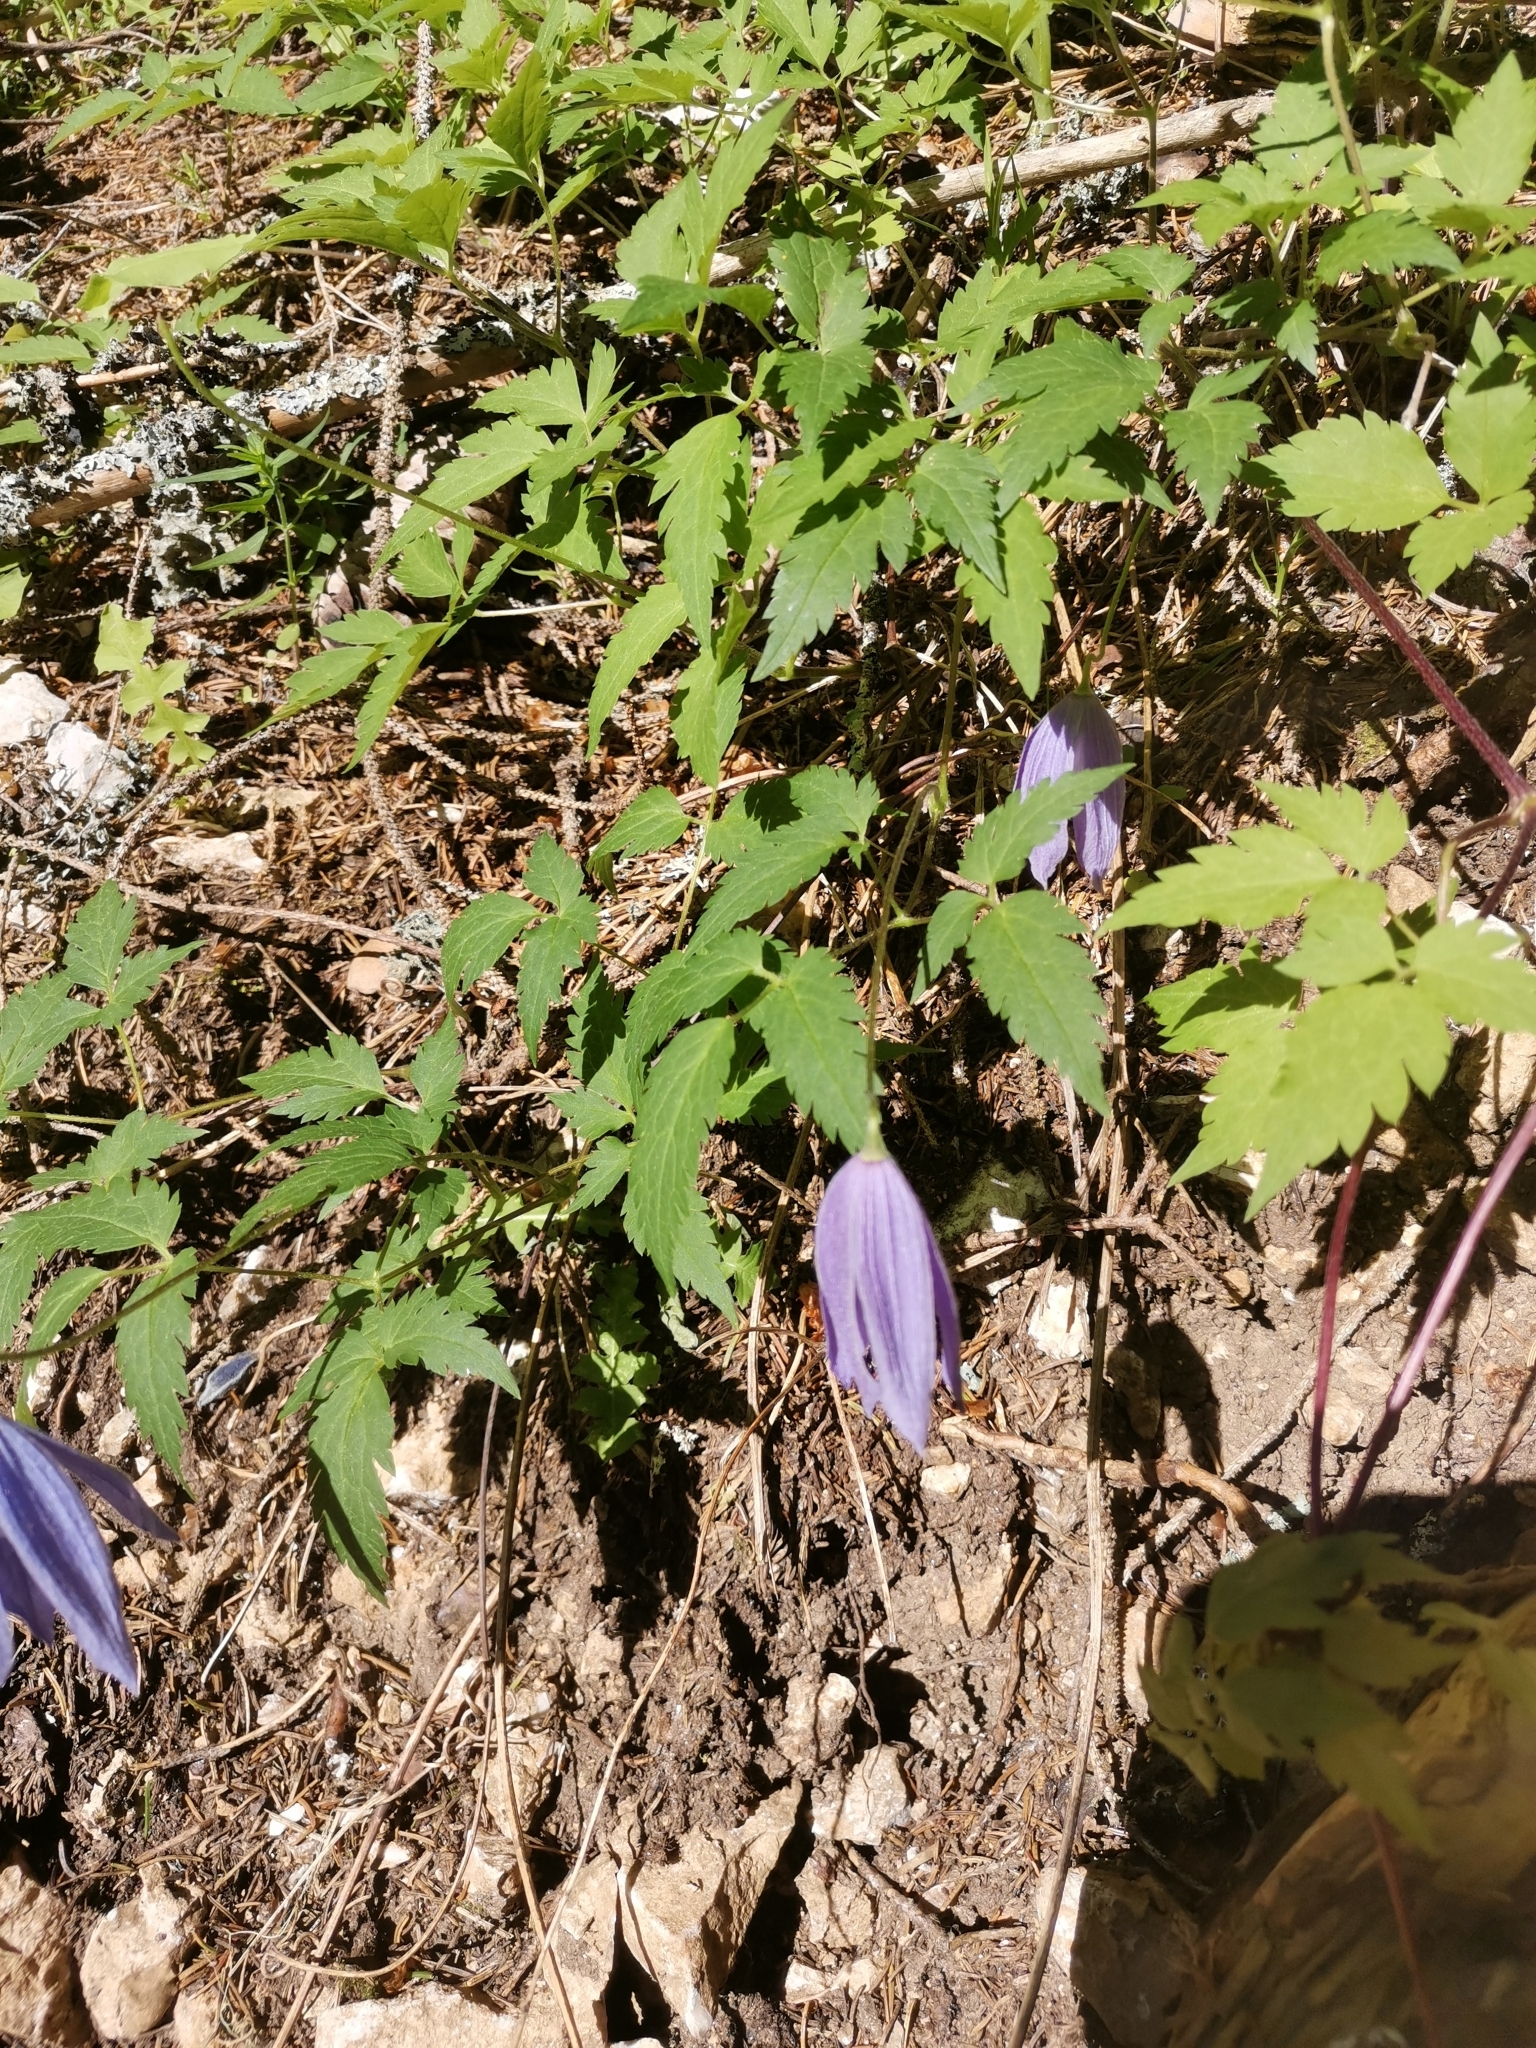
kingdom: Plantae
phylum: Tracheophyta
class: Magnoliopsida
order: Ranunculales
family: Ranunculaceae
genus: Clematis
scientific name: Clematis alpina
